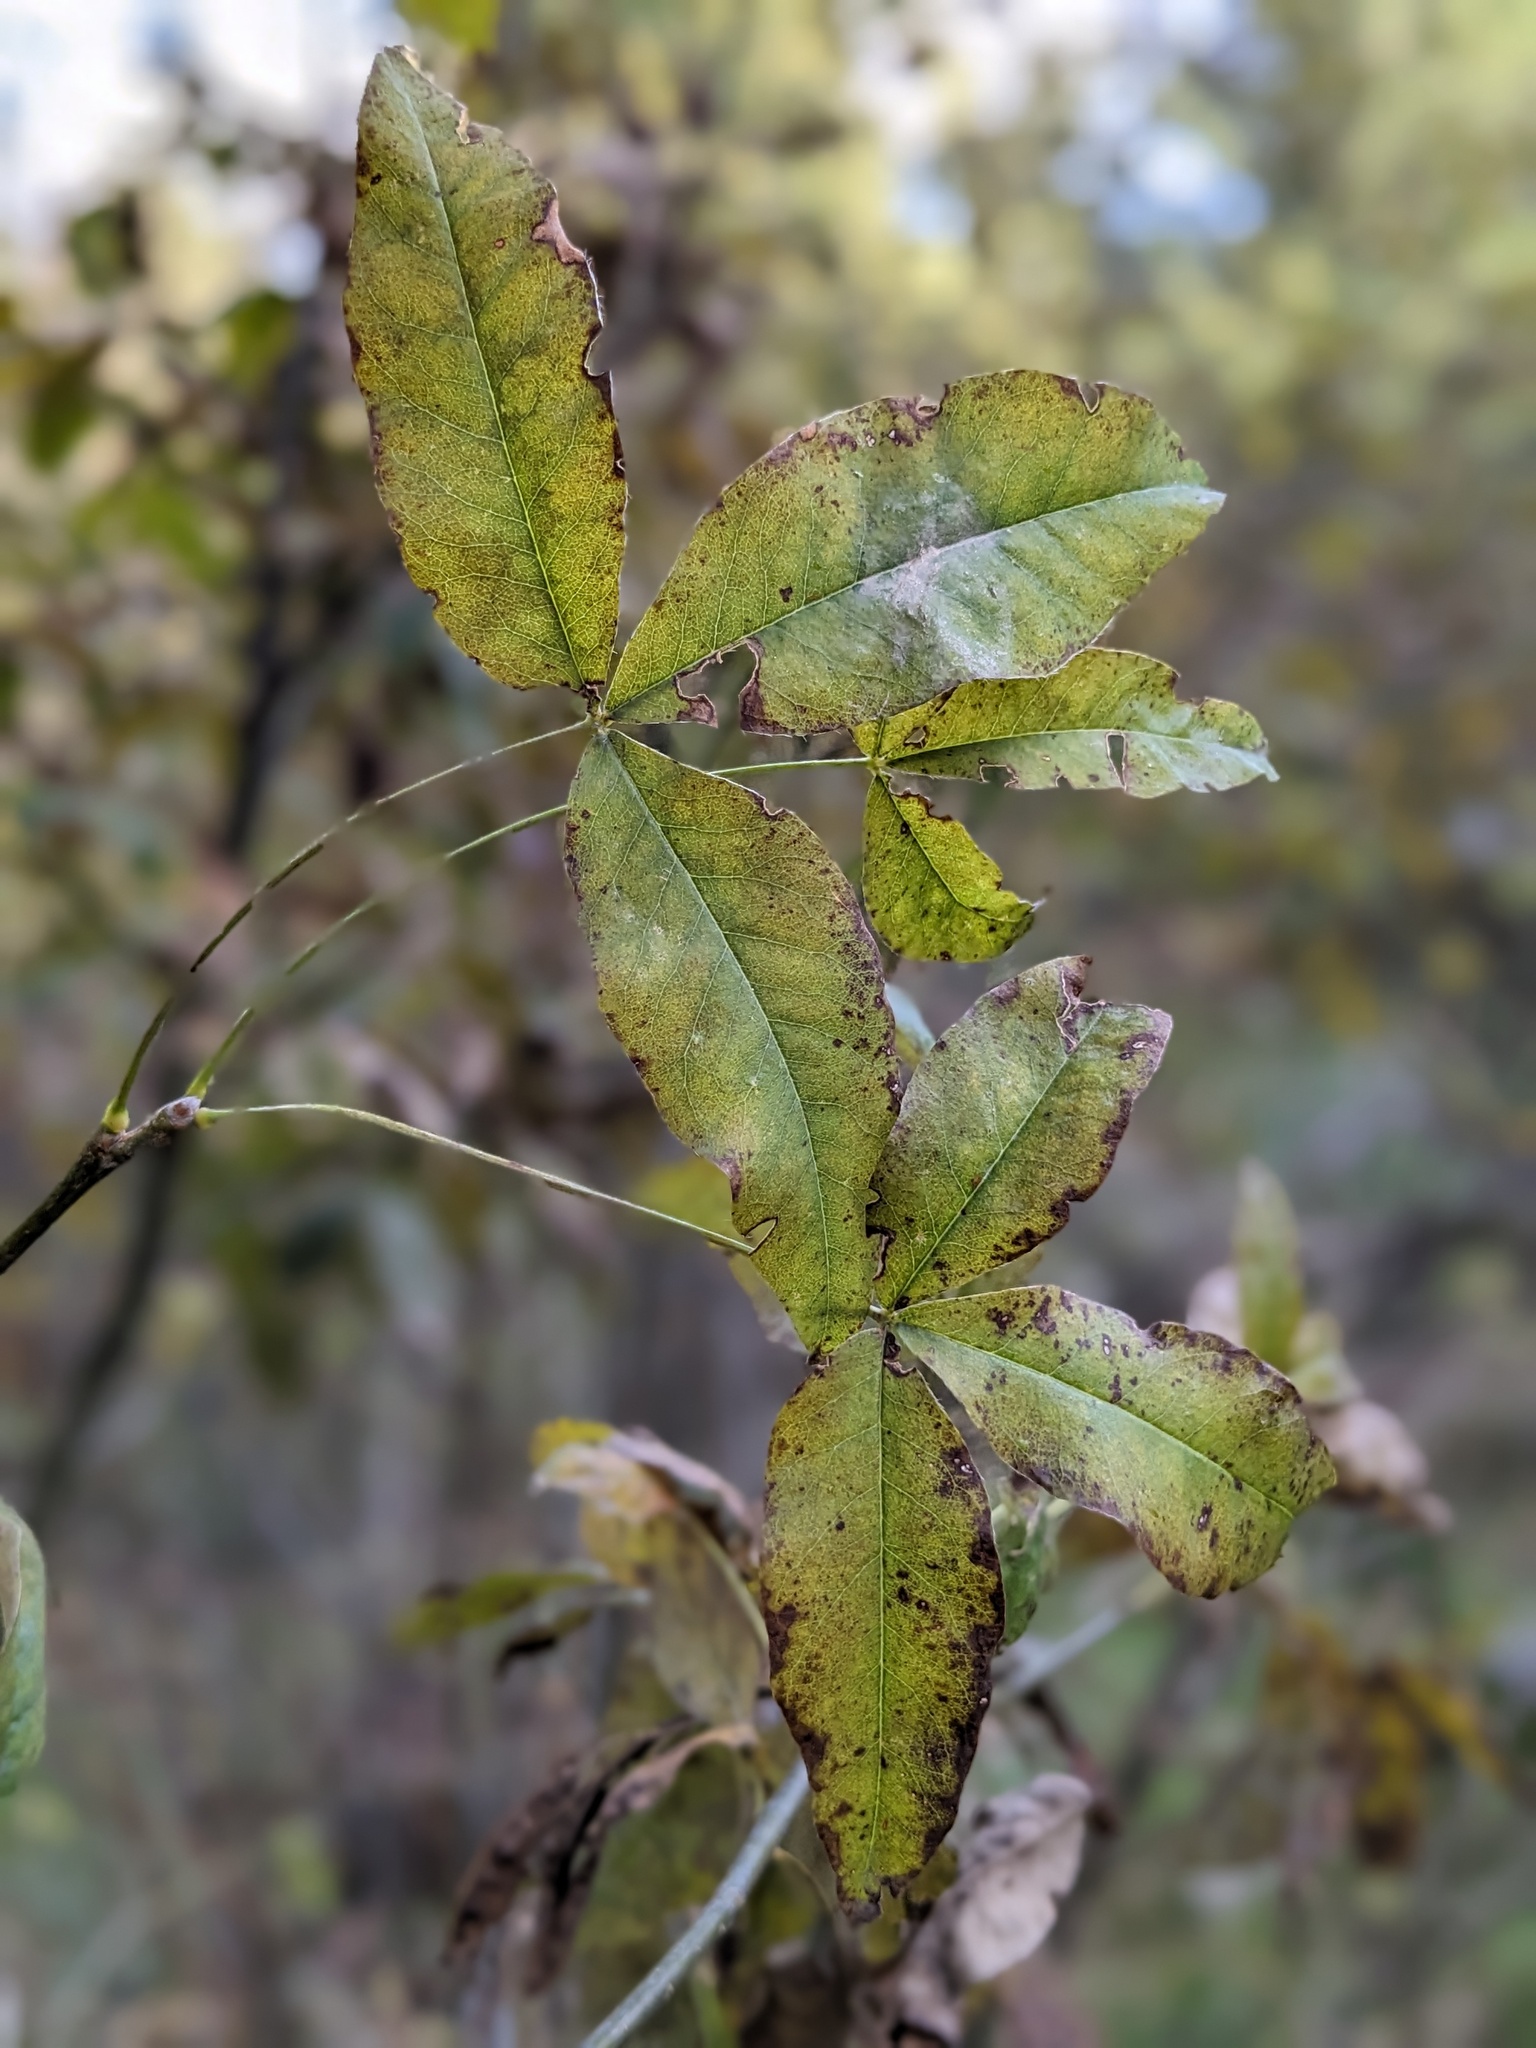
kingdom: Plantae
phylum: Tracheophyta
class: Magnoliopsida
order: Fabales
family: Fabaceae
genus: Laburnum
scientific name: Laburnum alpinum
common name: Scottish laburnum
